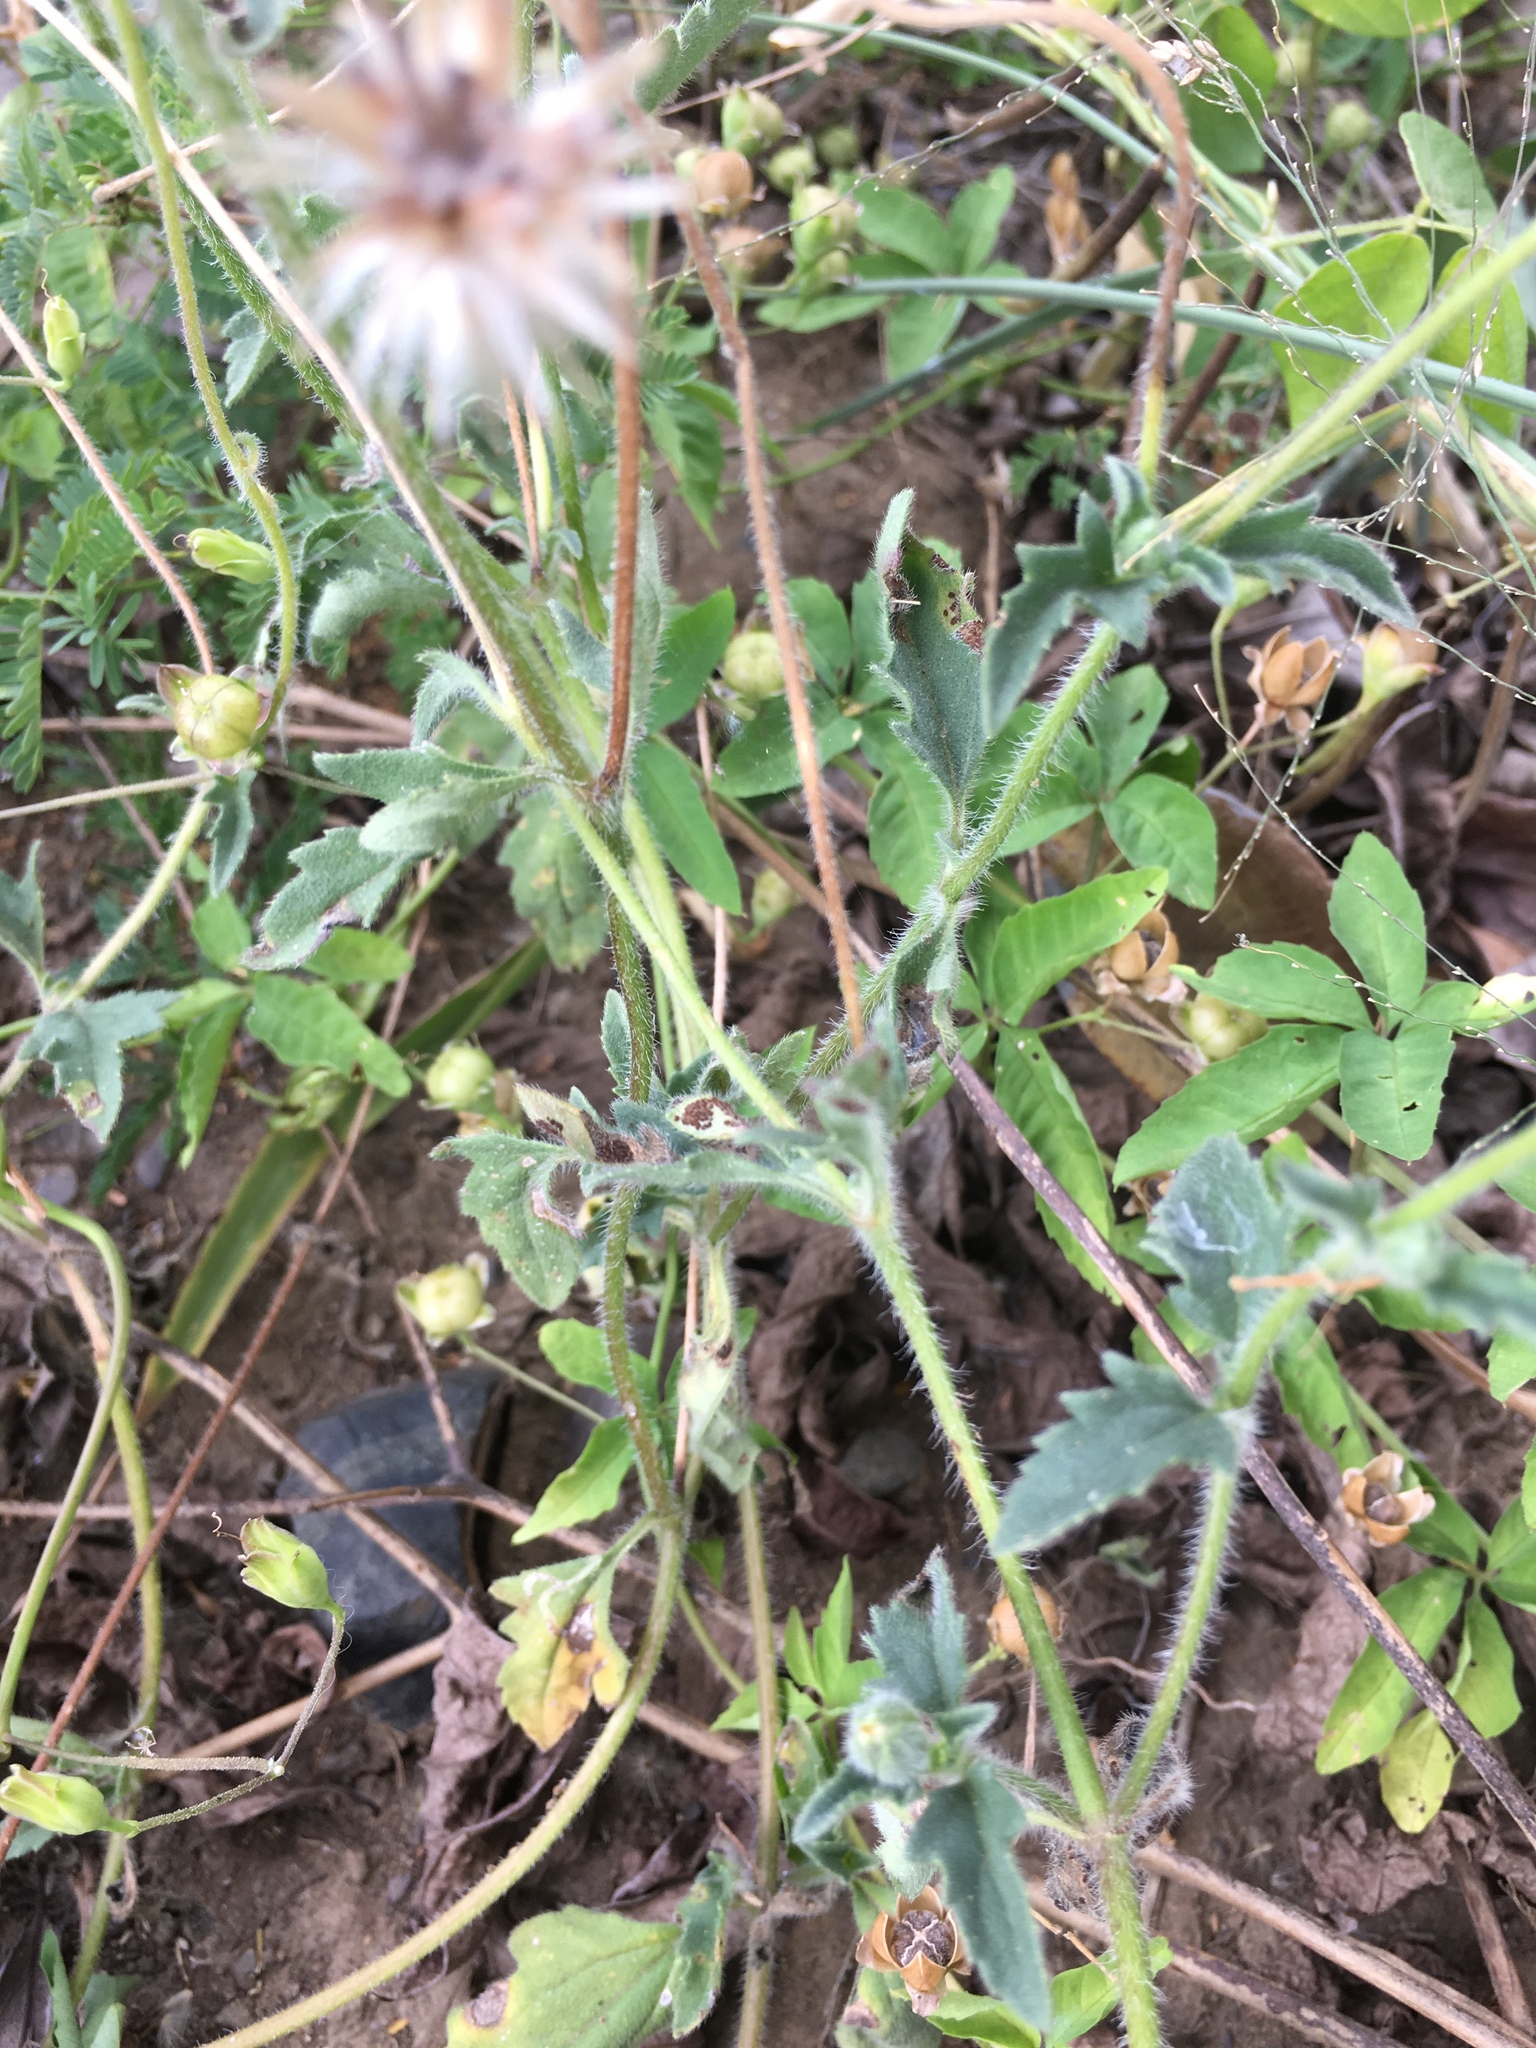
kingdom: Plantae
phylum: Tracheophyta
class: Magnoliopsida
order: Asterales
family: Asteraceae
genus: Tridax
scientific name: Tridax procumbens
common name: Coatbuttons
